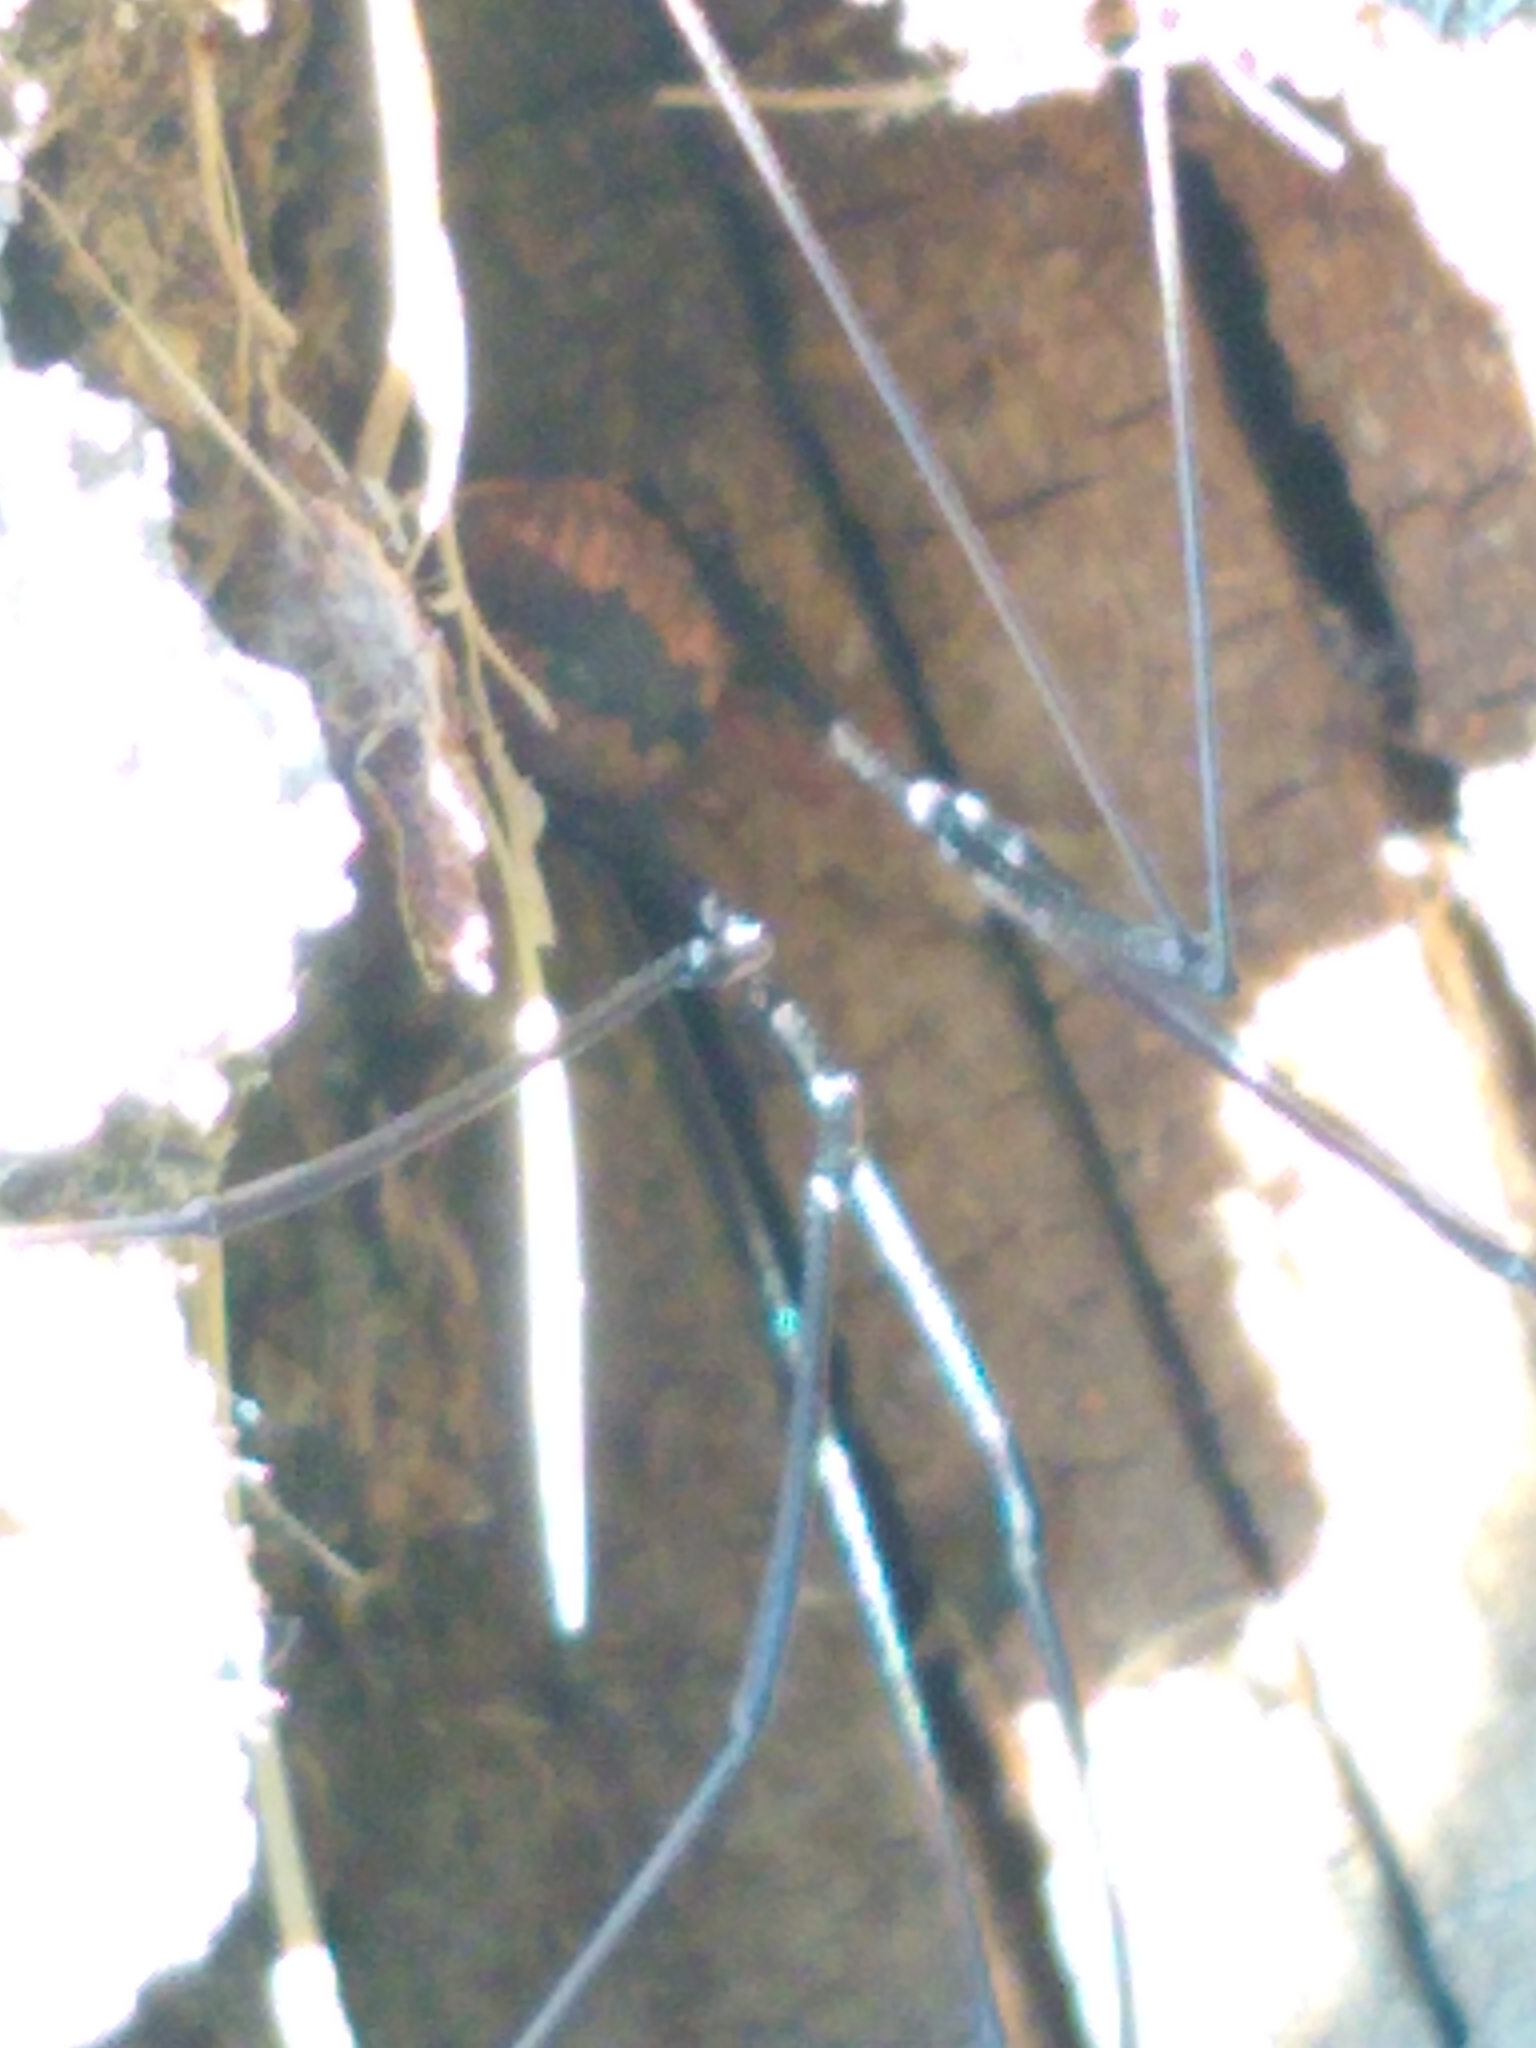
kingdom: Animalia
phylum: Arthropoda
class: Arachnida
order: Opiliones
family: Sclerosomatidae
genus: Leiobunum
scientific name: Leiobunum vittatum
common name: Eastern harvestman
